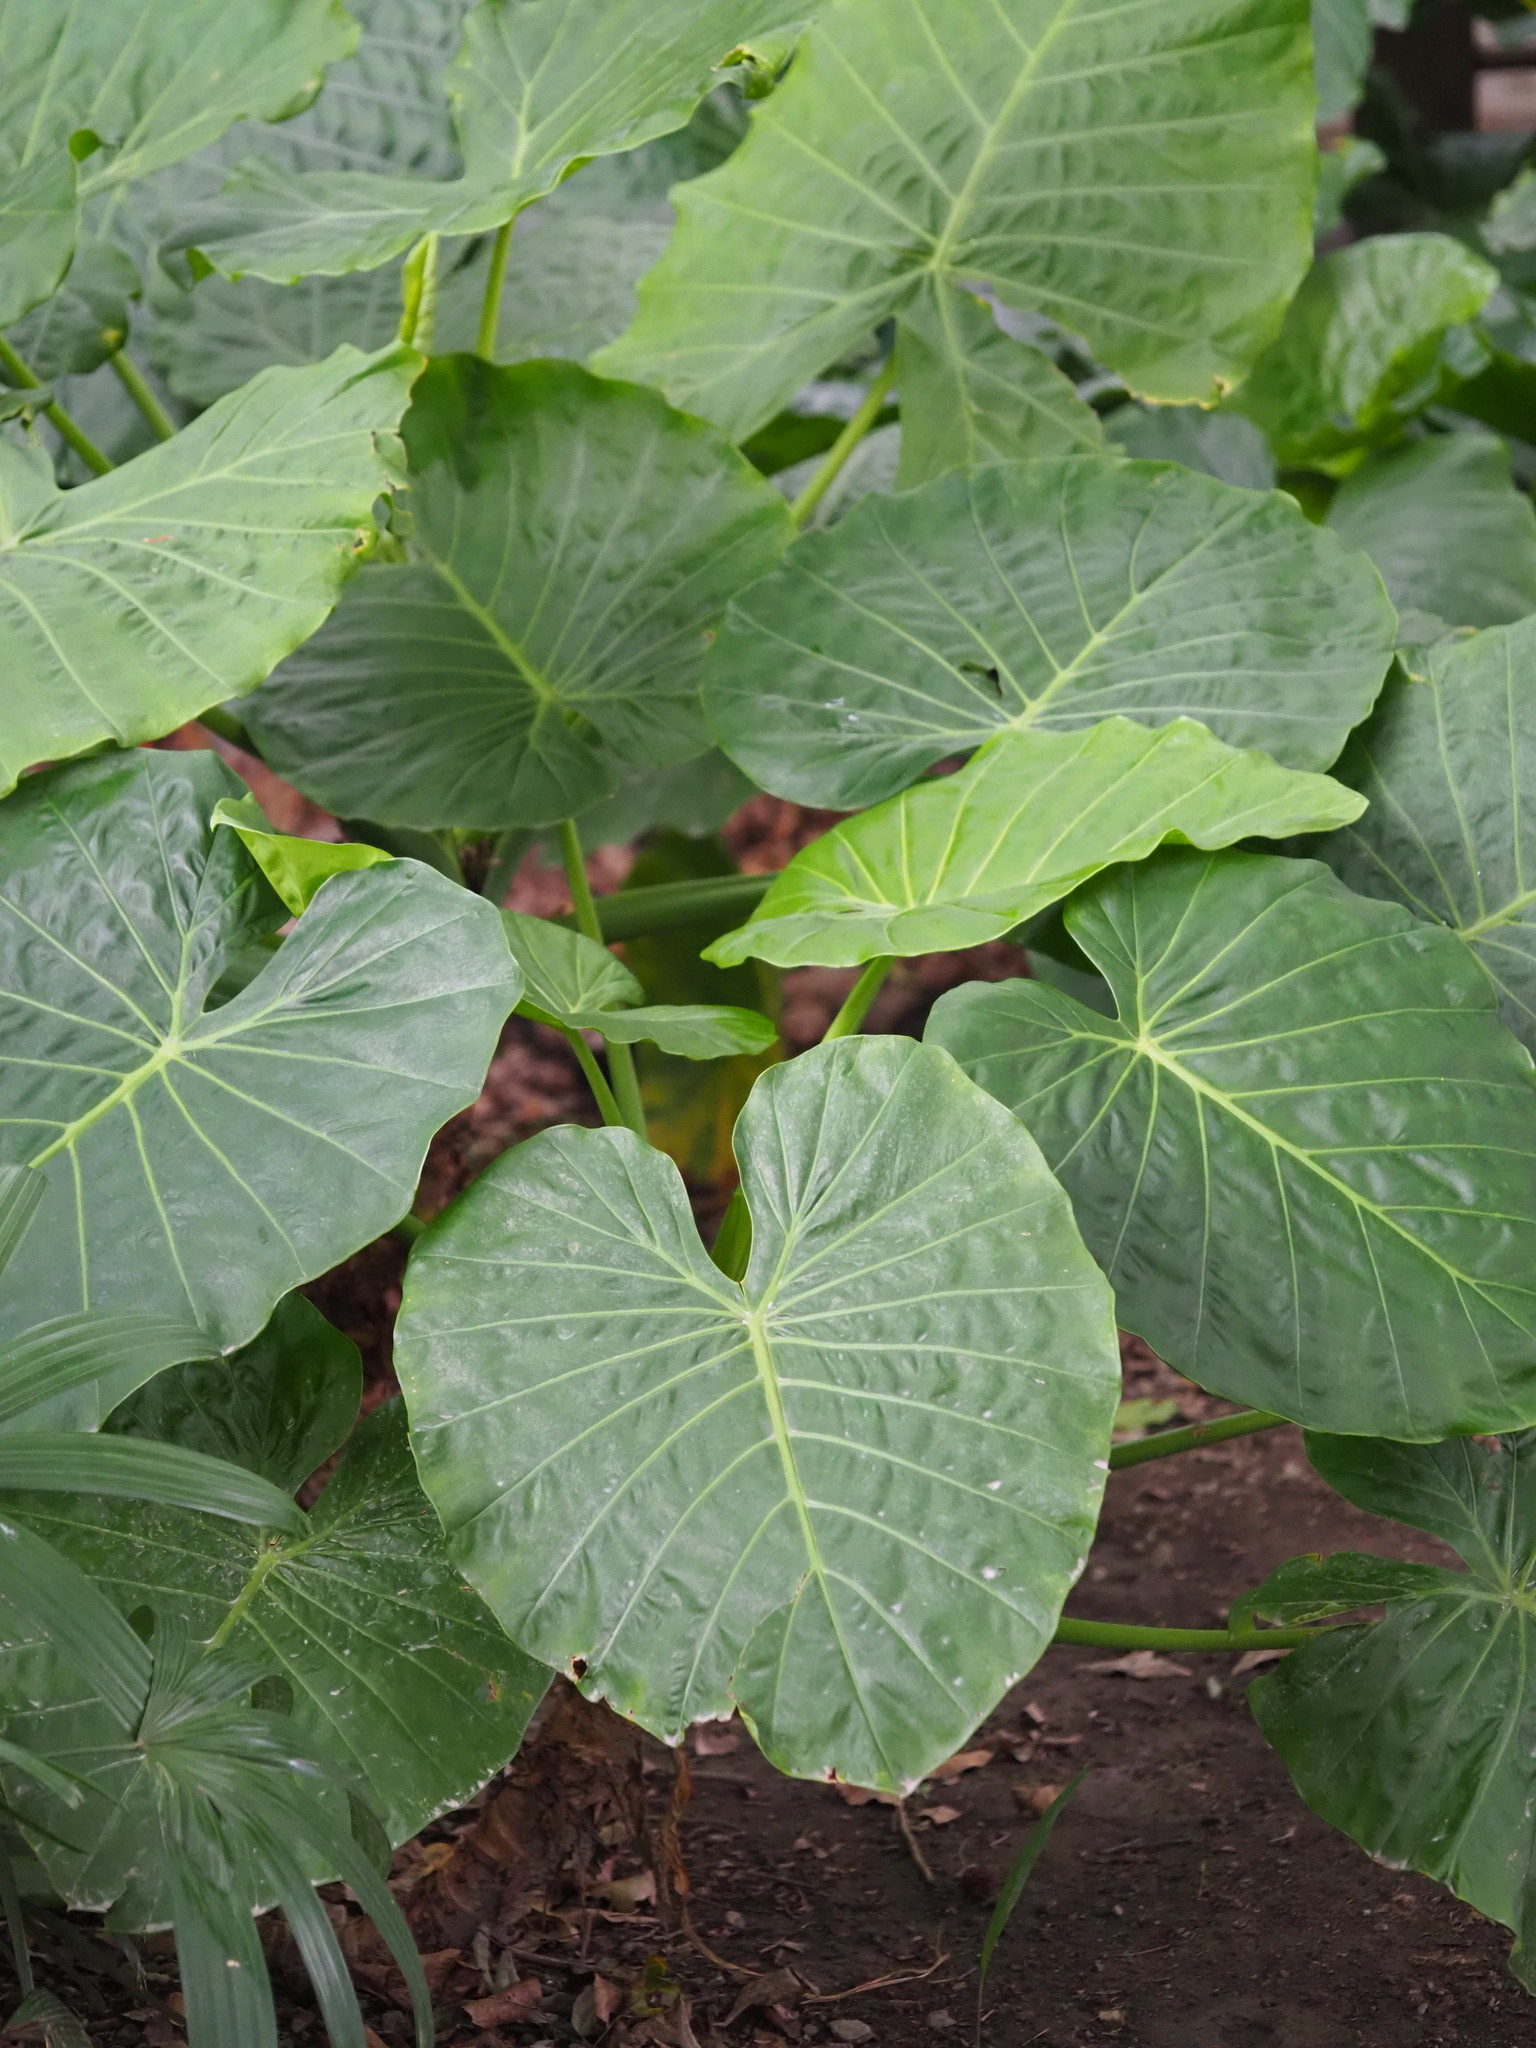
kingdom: Plantae
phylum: Tracheophyta
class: Liliopsida
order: Alismatales
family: Araceae
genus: Alocasia
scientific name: Alocasia odora
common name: Asian taro
